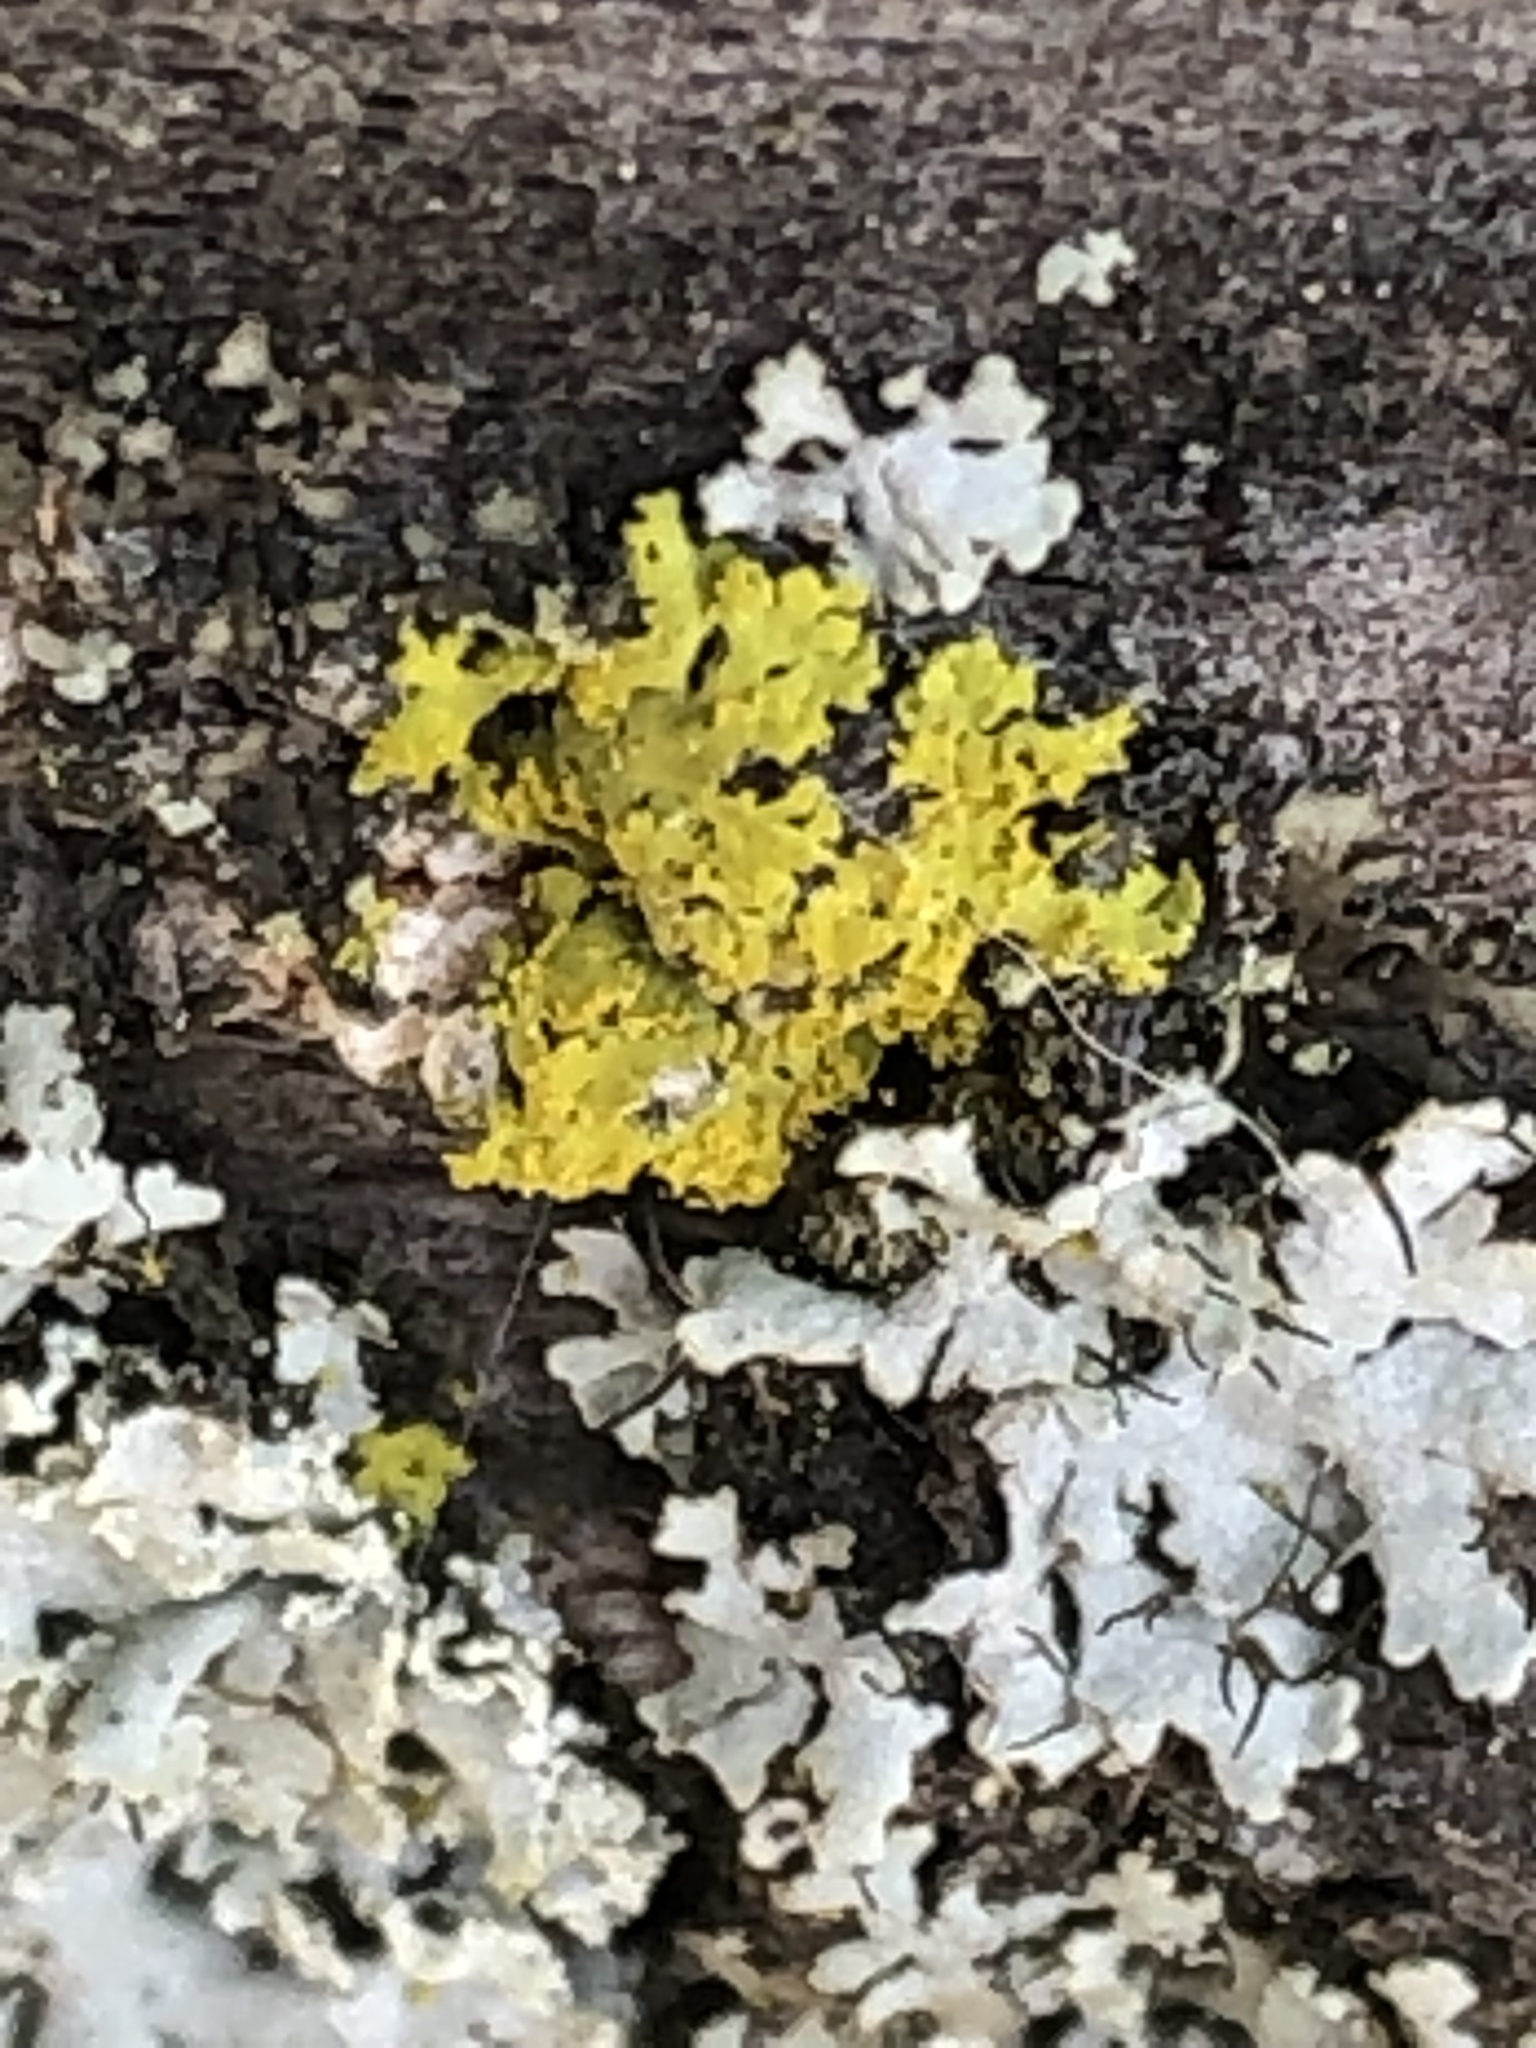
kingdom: Fungi
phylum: Ascomycota
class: Candelariomycetes
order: Candelariales
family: Candelariaceae
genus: Candelaria
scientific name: Candelaria concolor
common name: Candleflame lichen
